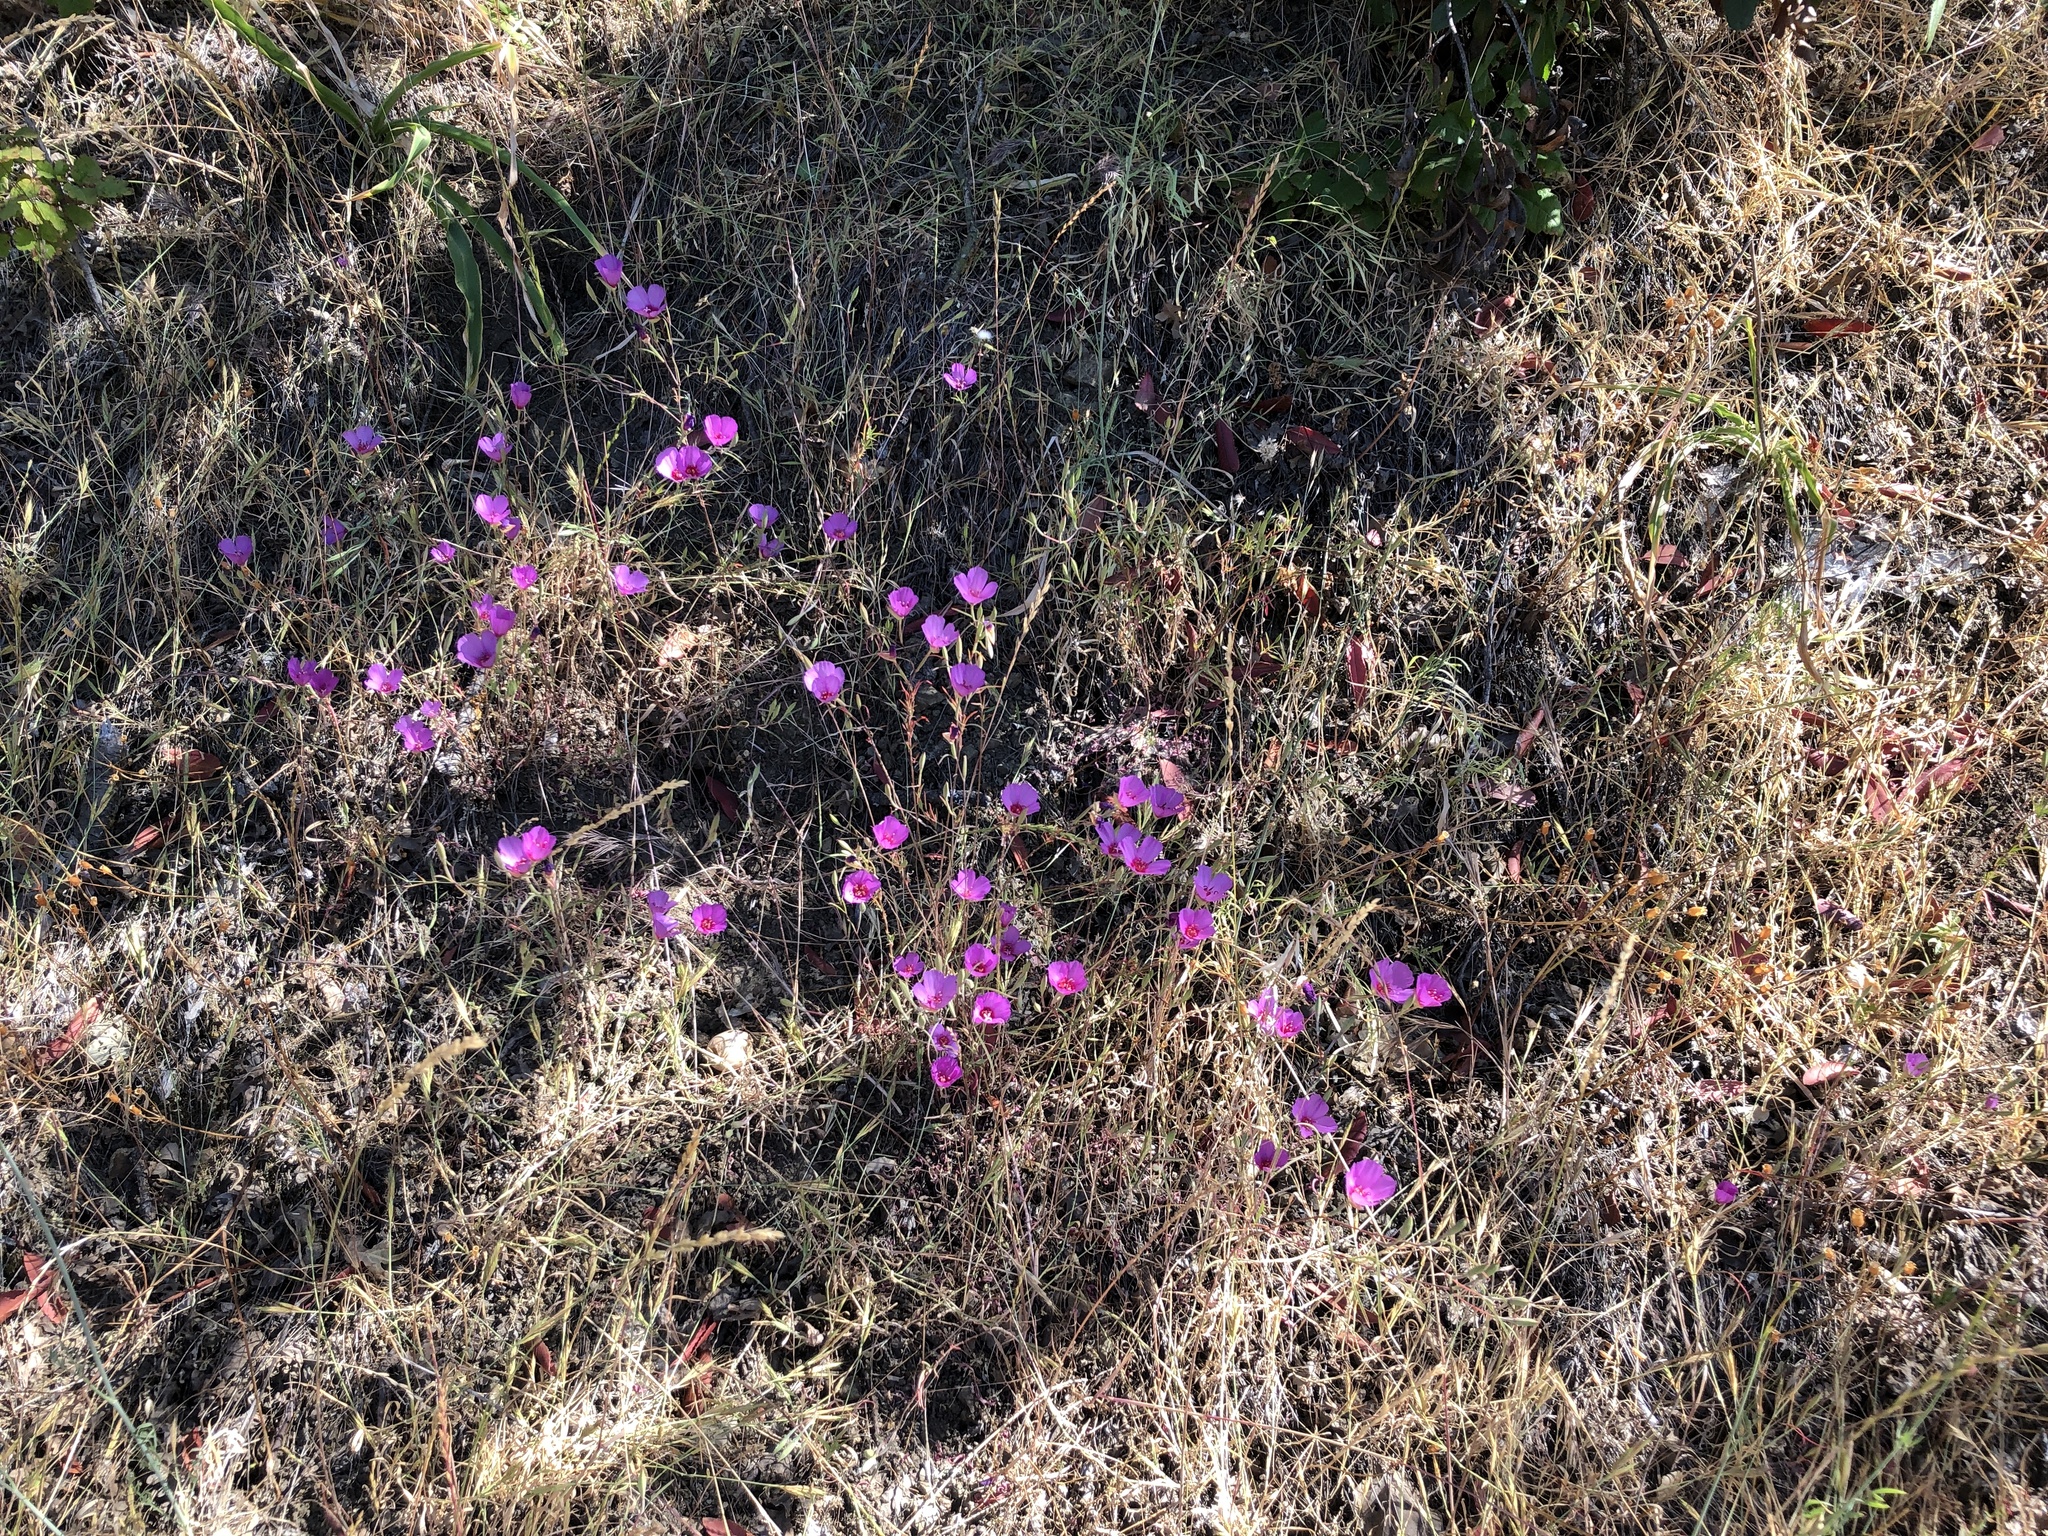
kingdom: Plantae
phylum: Tracheophyta
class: Magnoliopsida
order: Myrtales
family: Onagraceae
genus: Clarkia
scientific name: Clarkia rubicunda
